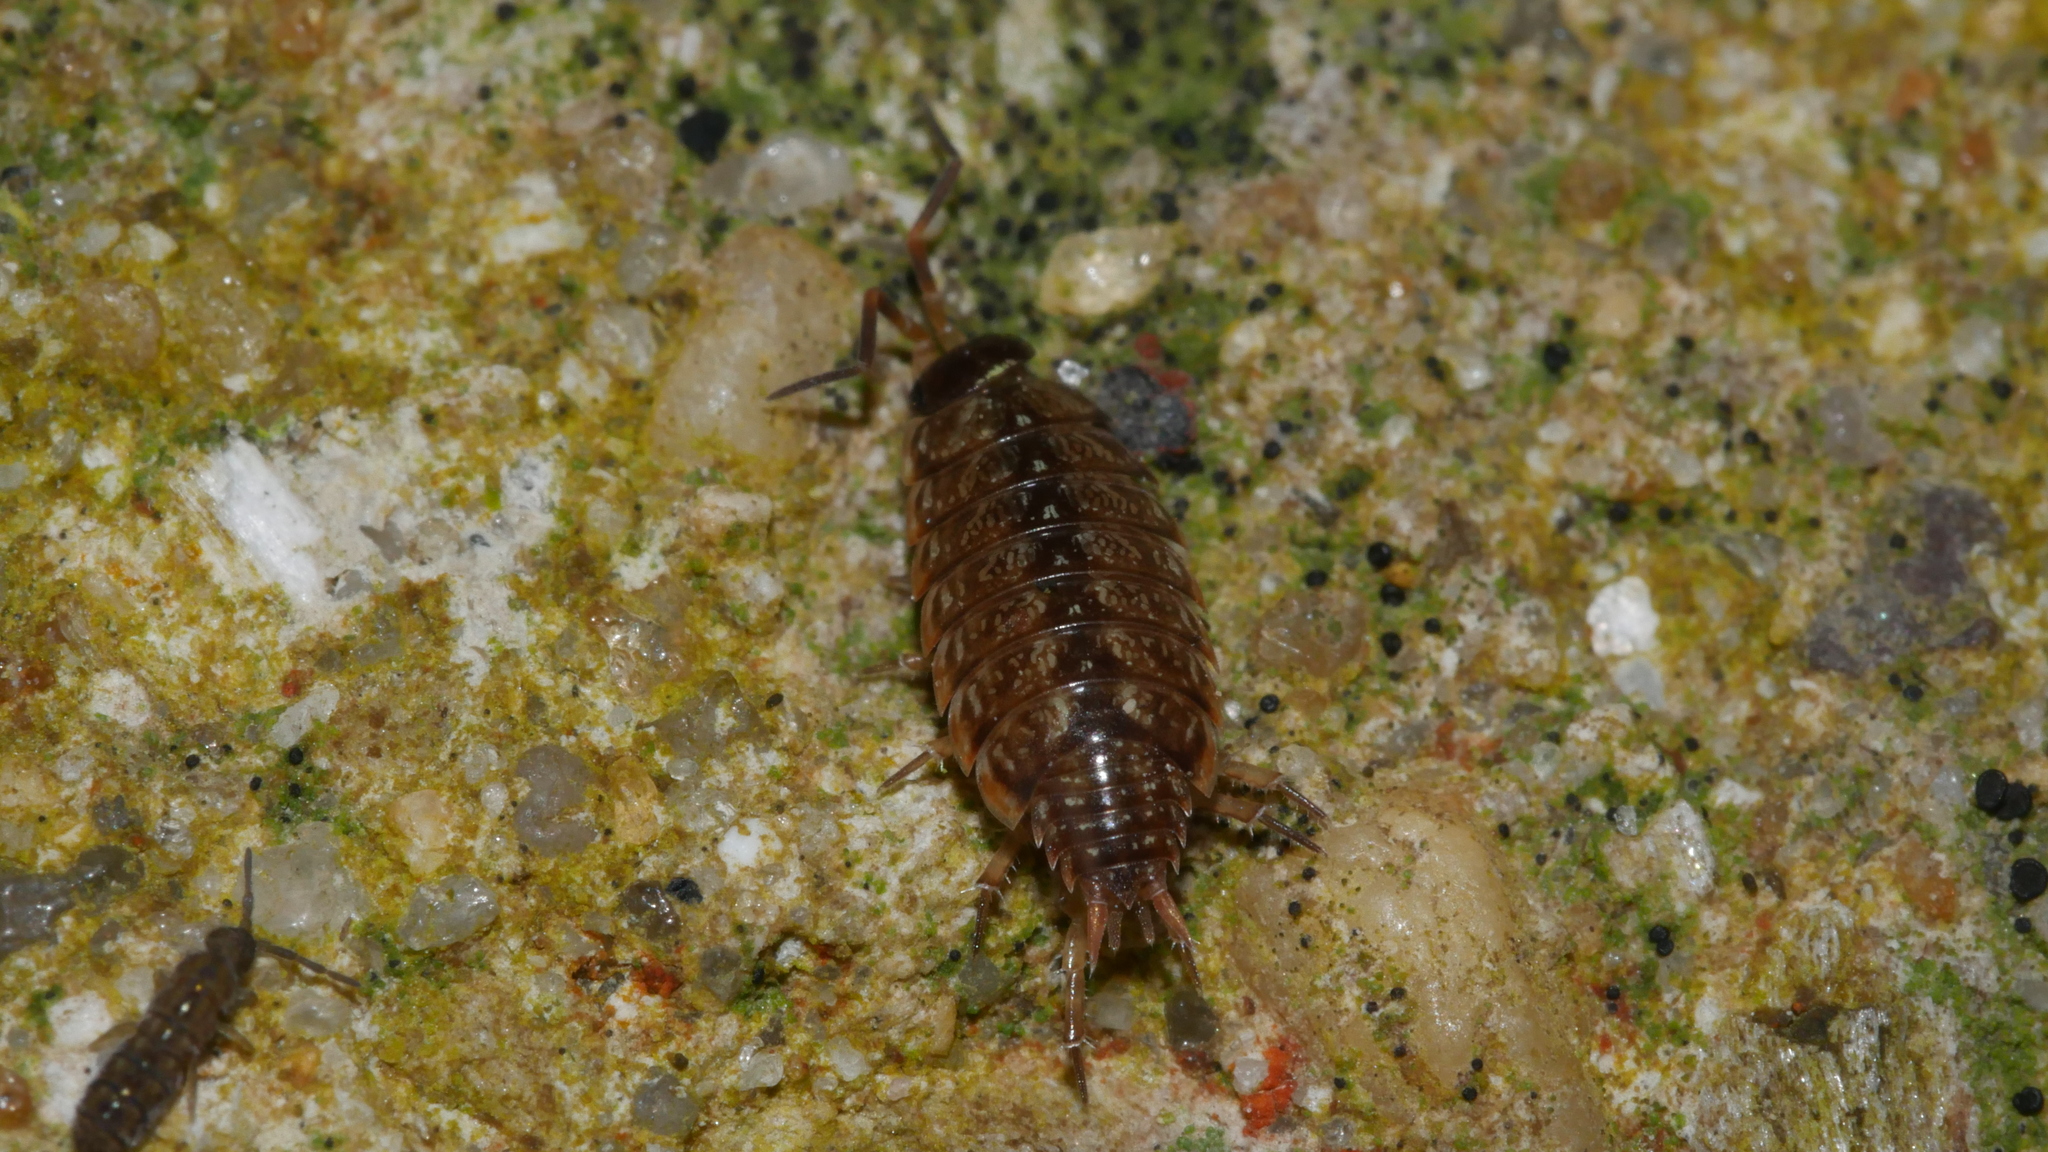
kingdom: Animalia
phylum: Arthropoda
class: Malacostraca
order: Isopoda
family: Philosciidae
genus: Philoscia
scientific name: Philoscia muscorum
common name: Common striped woodlouse
